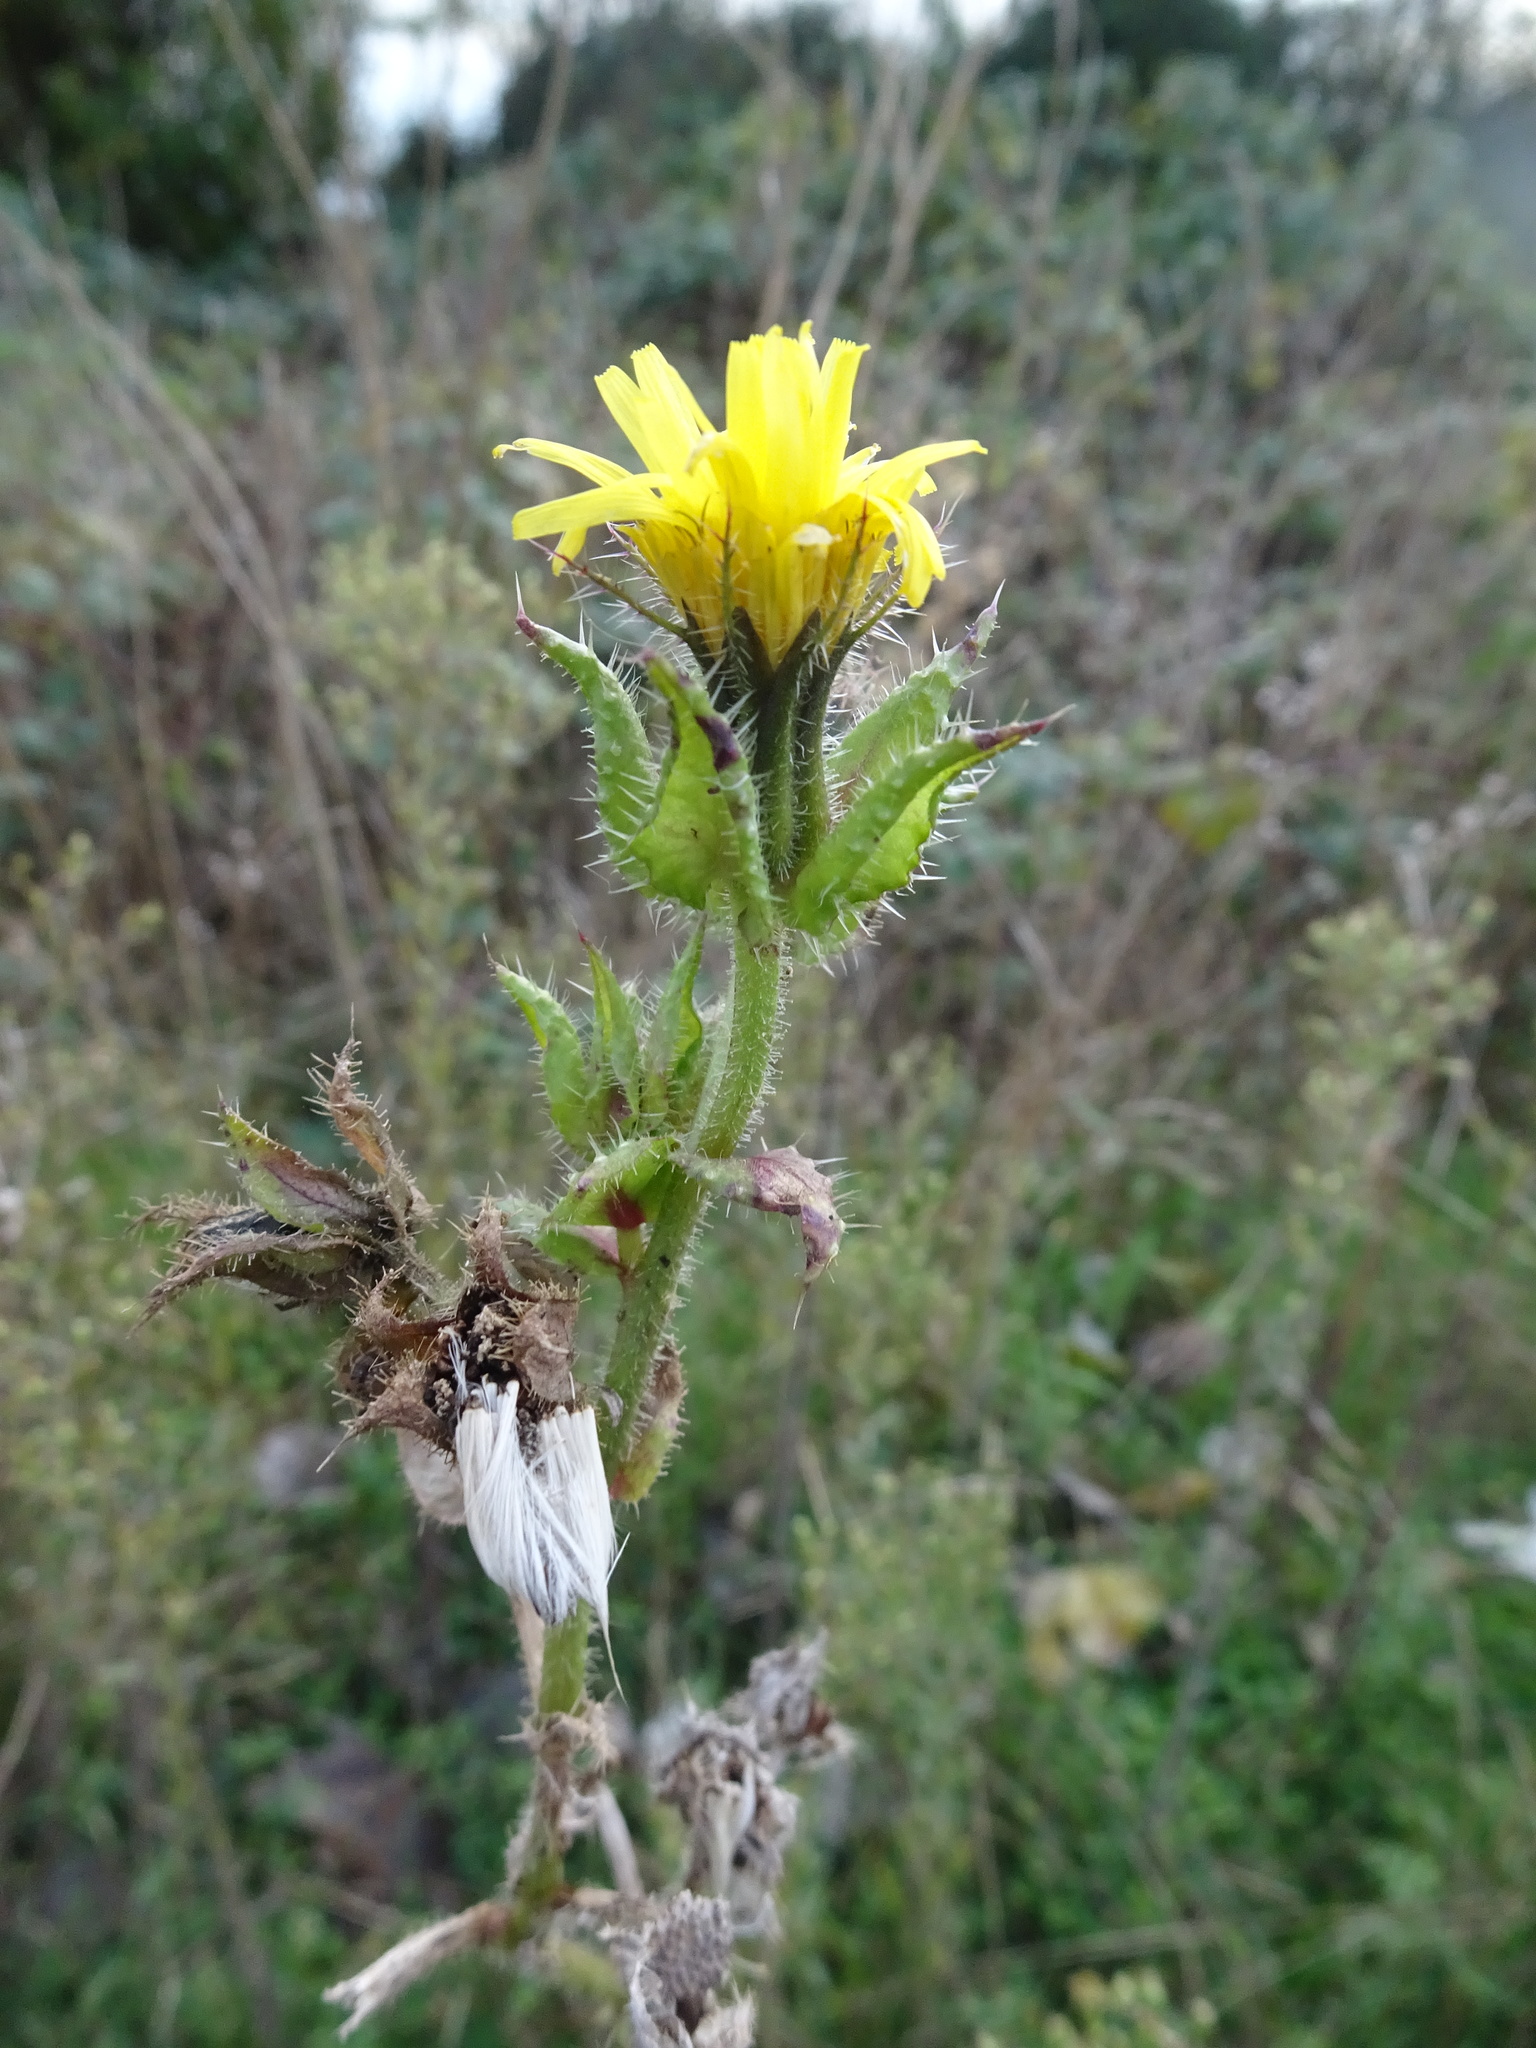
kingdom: Plantae
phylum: Tracheophyta
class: Magnoliopsida
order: Asterales
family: Asteraceae
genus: Helminthotheca
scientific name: Helminthotheca echioides
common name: Ox-tongue
